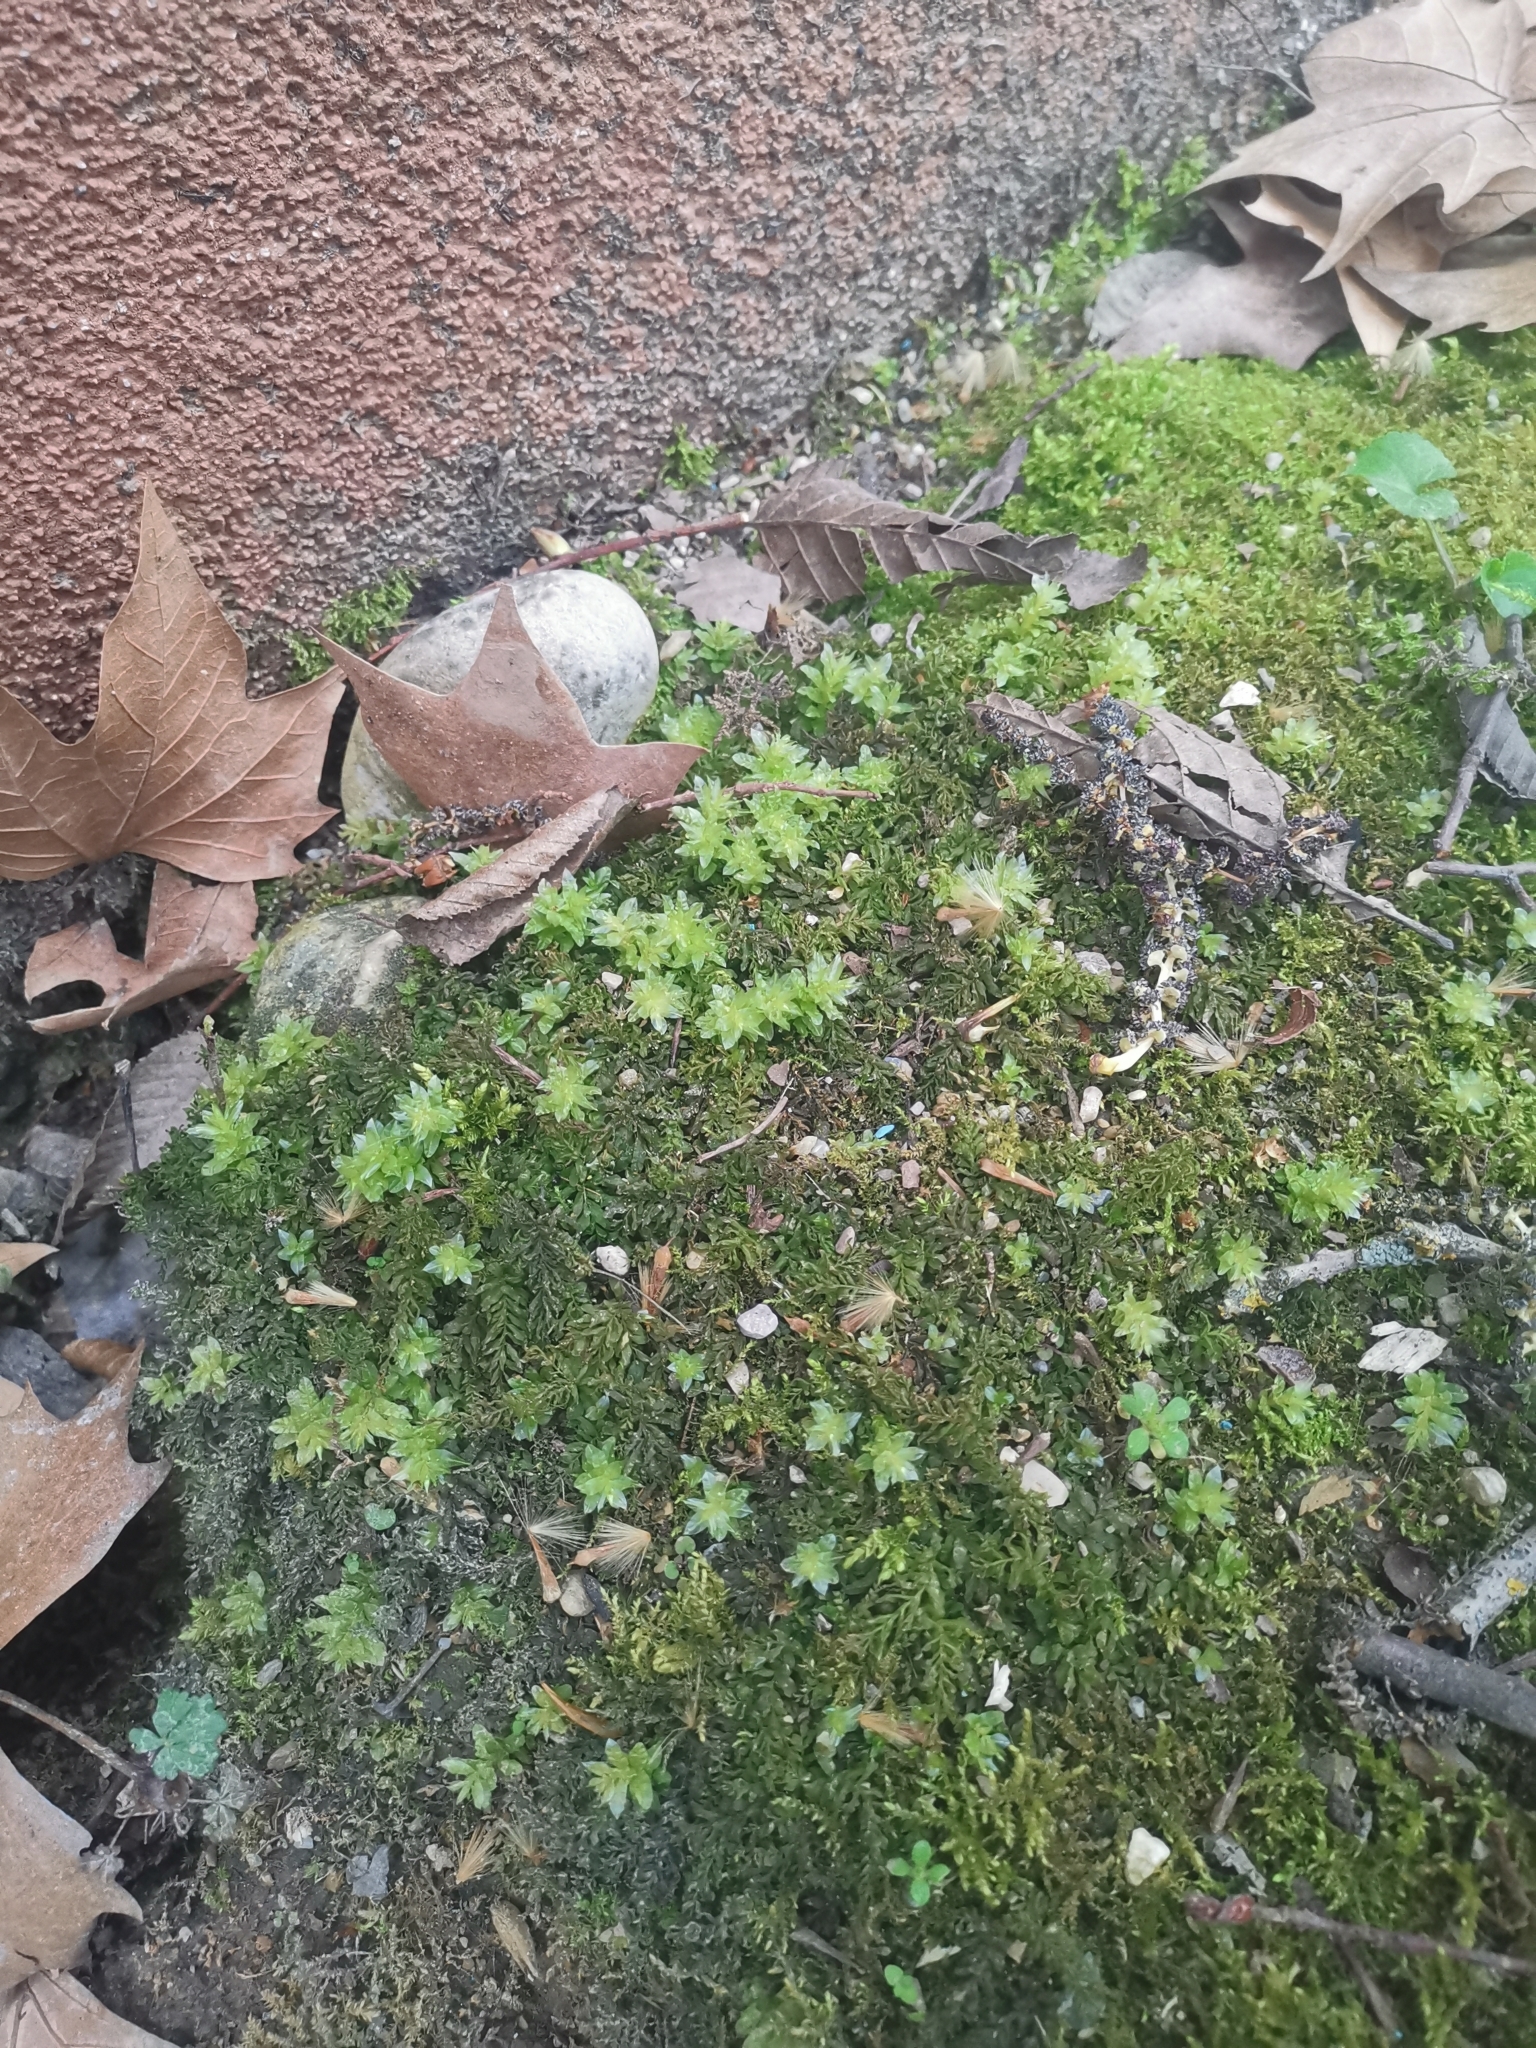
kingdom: Plantae
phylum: Bryophyta
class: Bryopsida
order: Bryales
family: Mniaceae
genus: Plagiomnium
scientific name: Plagiomnium undulatum
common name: Hart's-tongue thyme-moss
